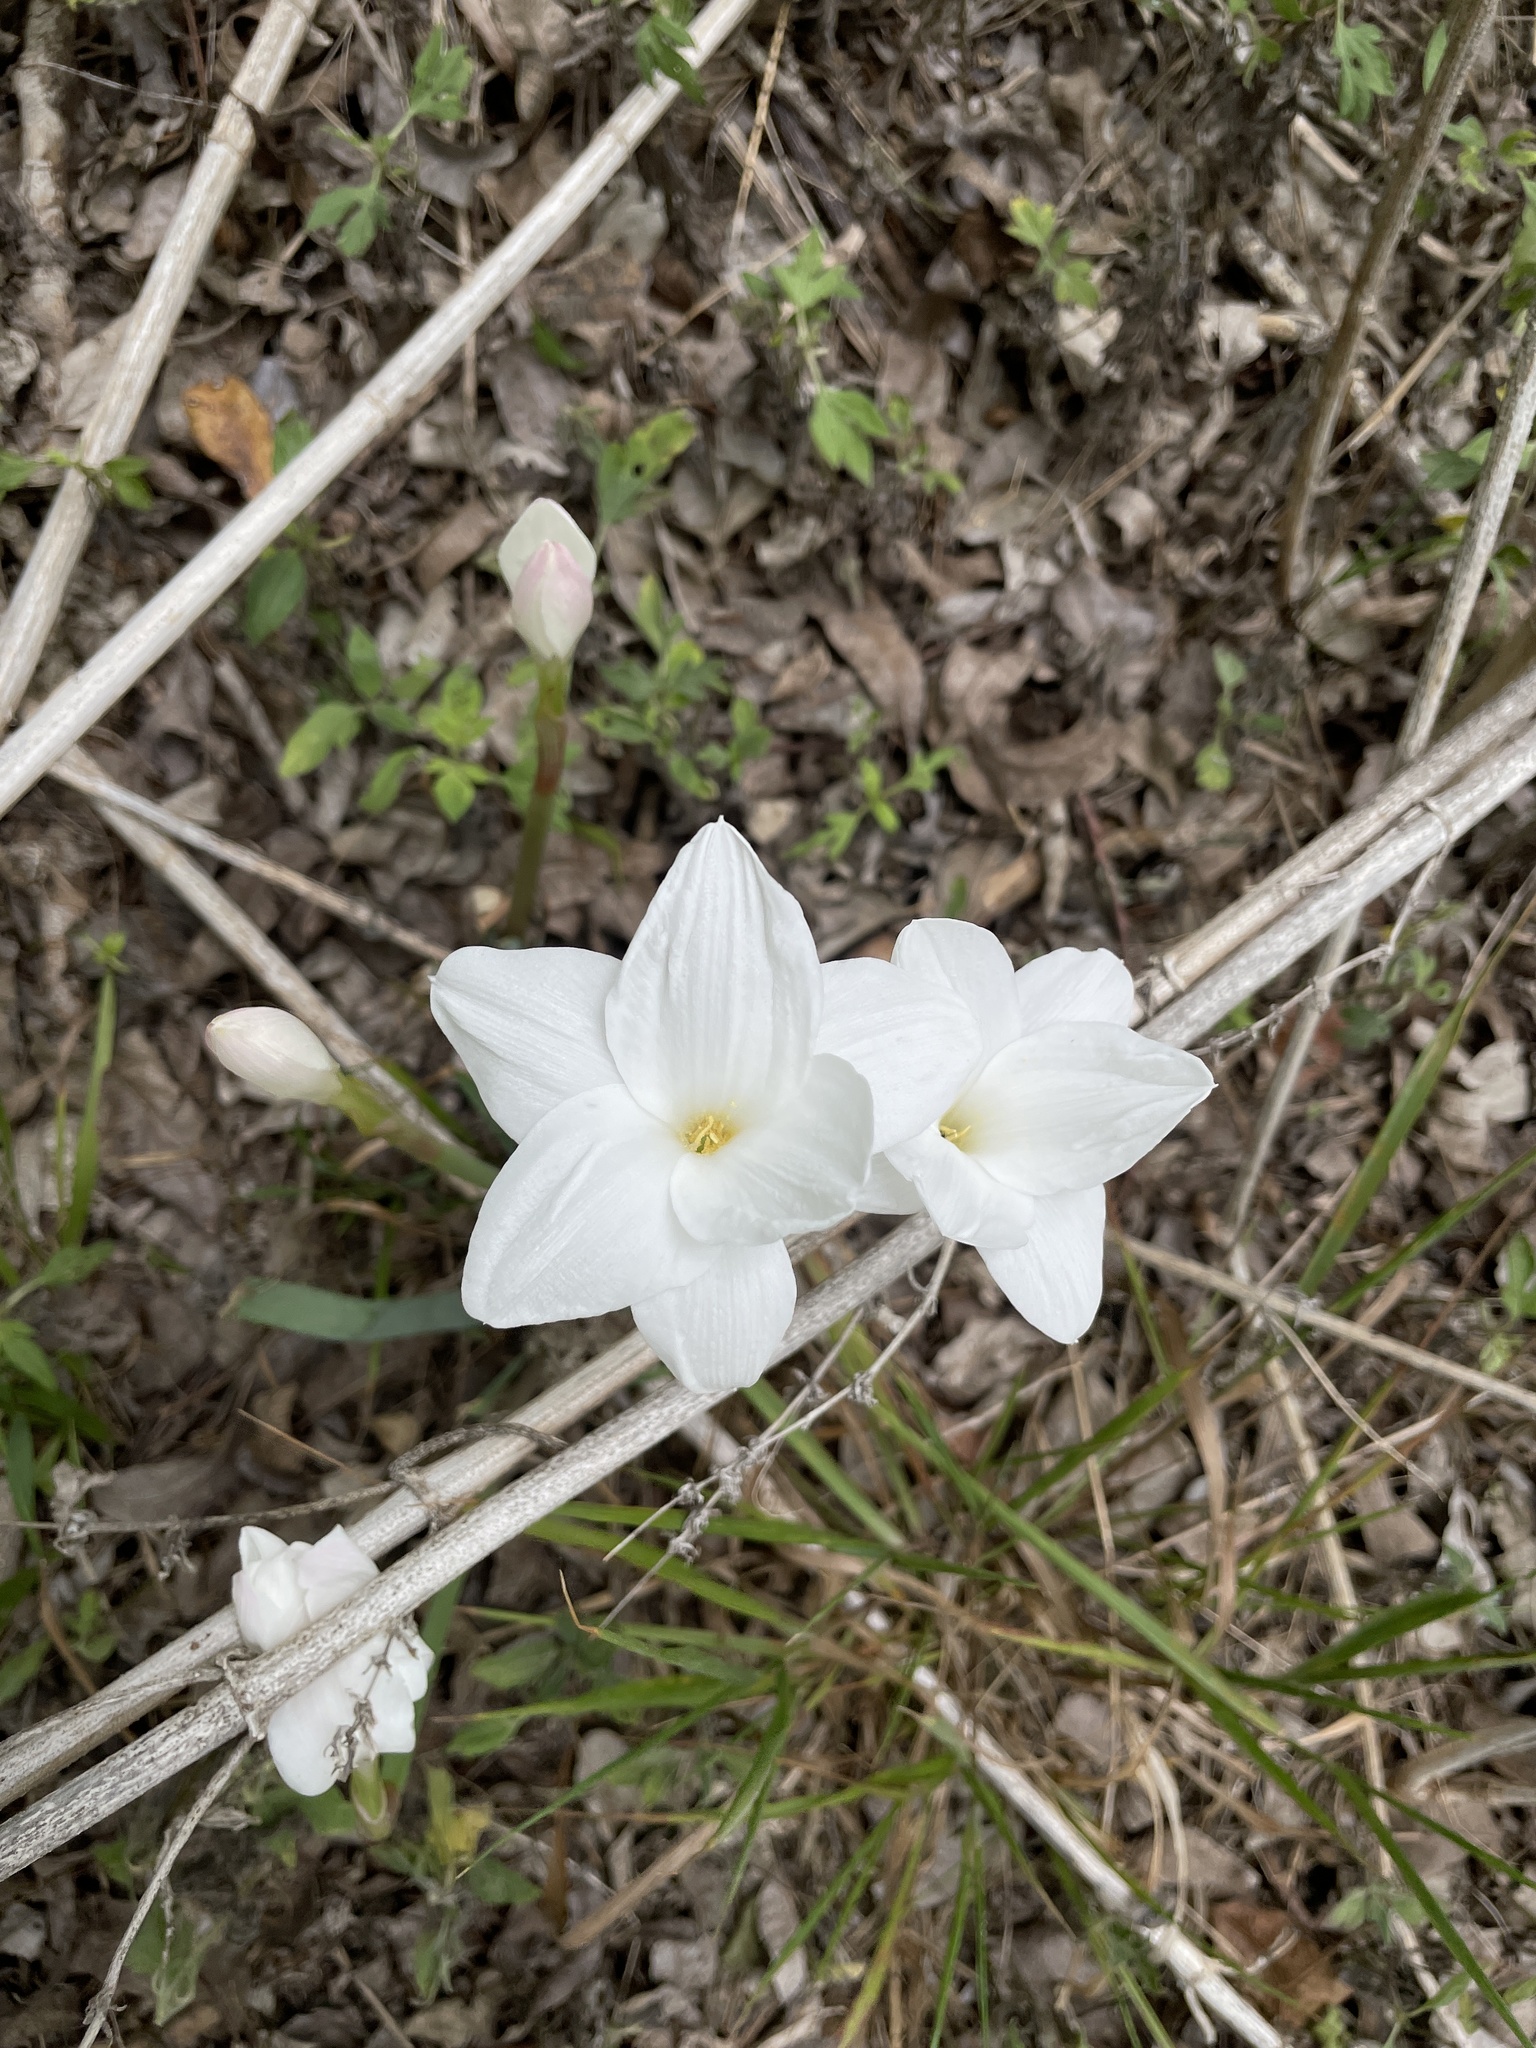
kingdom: Plantae
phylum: Tracheophyta
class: Liliopsida
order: Asparagales
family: Amaryllidaceae
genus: Zephyranthes
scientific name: Zephyranthes drummondii
